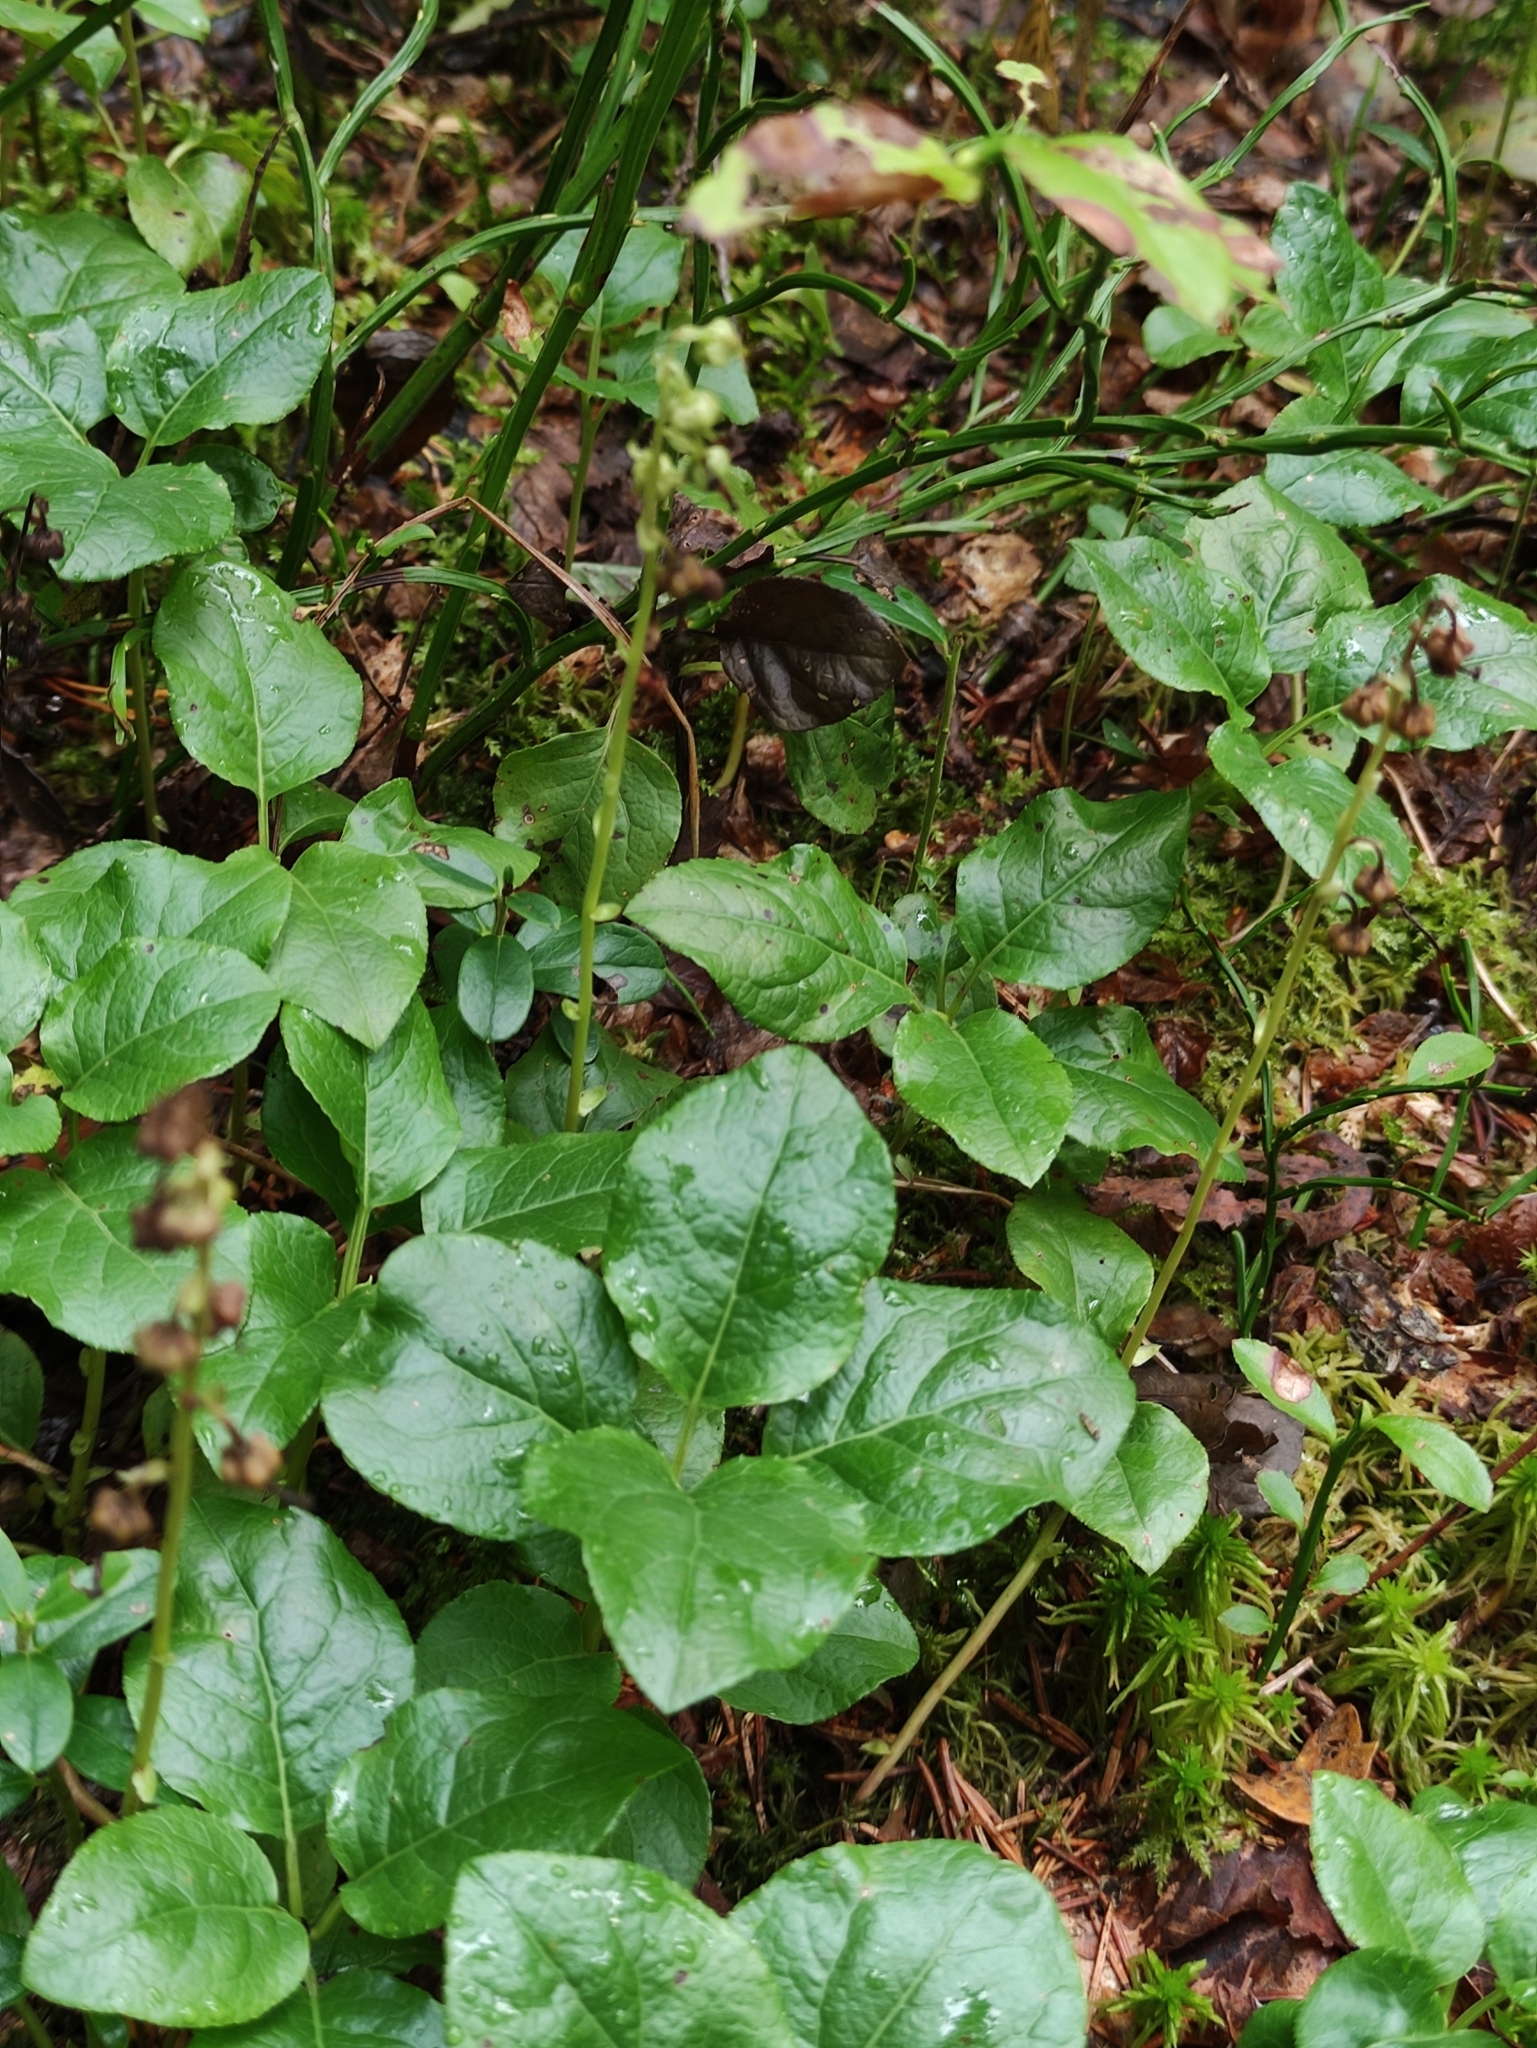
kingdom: Plantae
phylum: Tracheophyta
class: Magnoliopsida
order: Ericales
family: Ericaceae
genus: Orthilia
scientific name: Orthilia secunda
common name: One-sided orthilia
